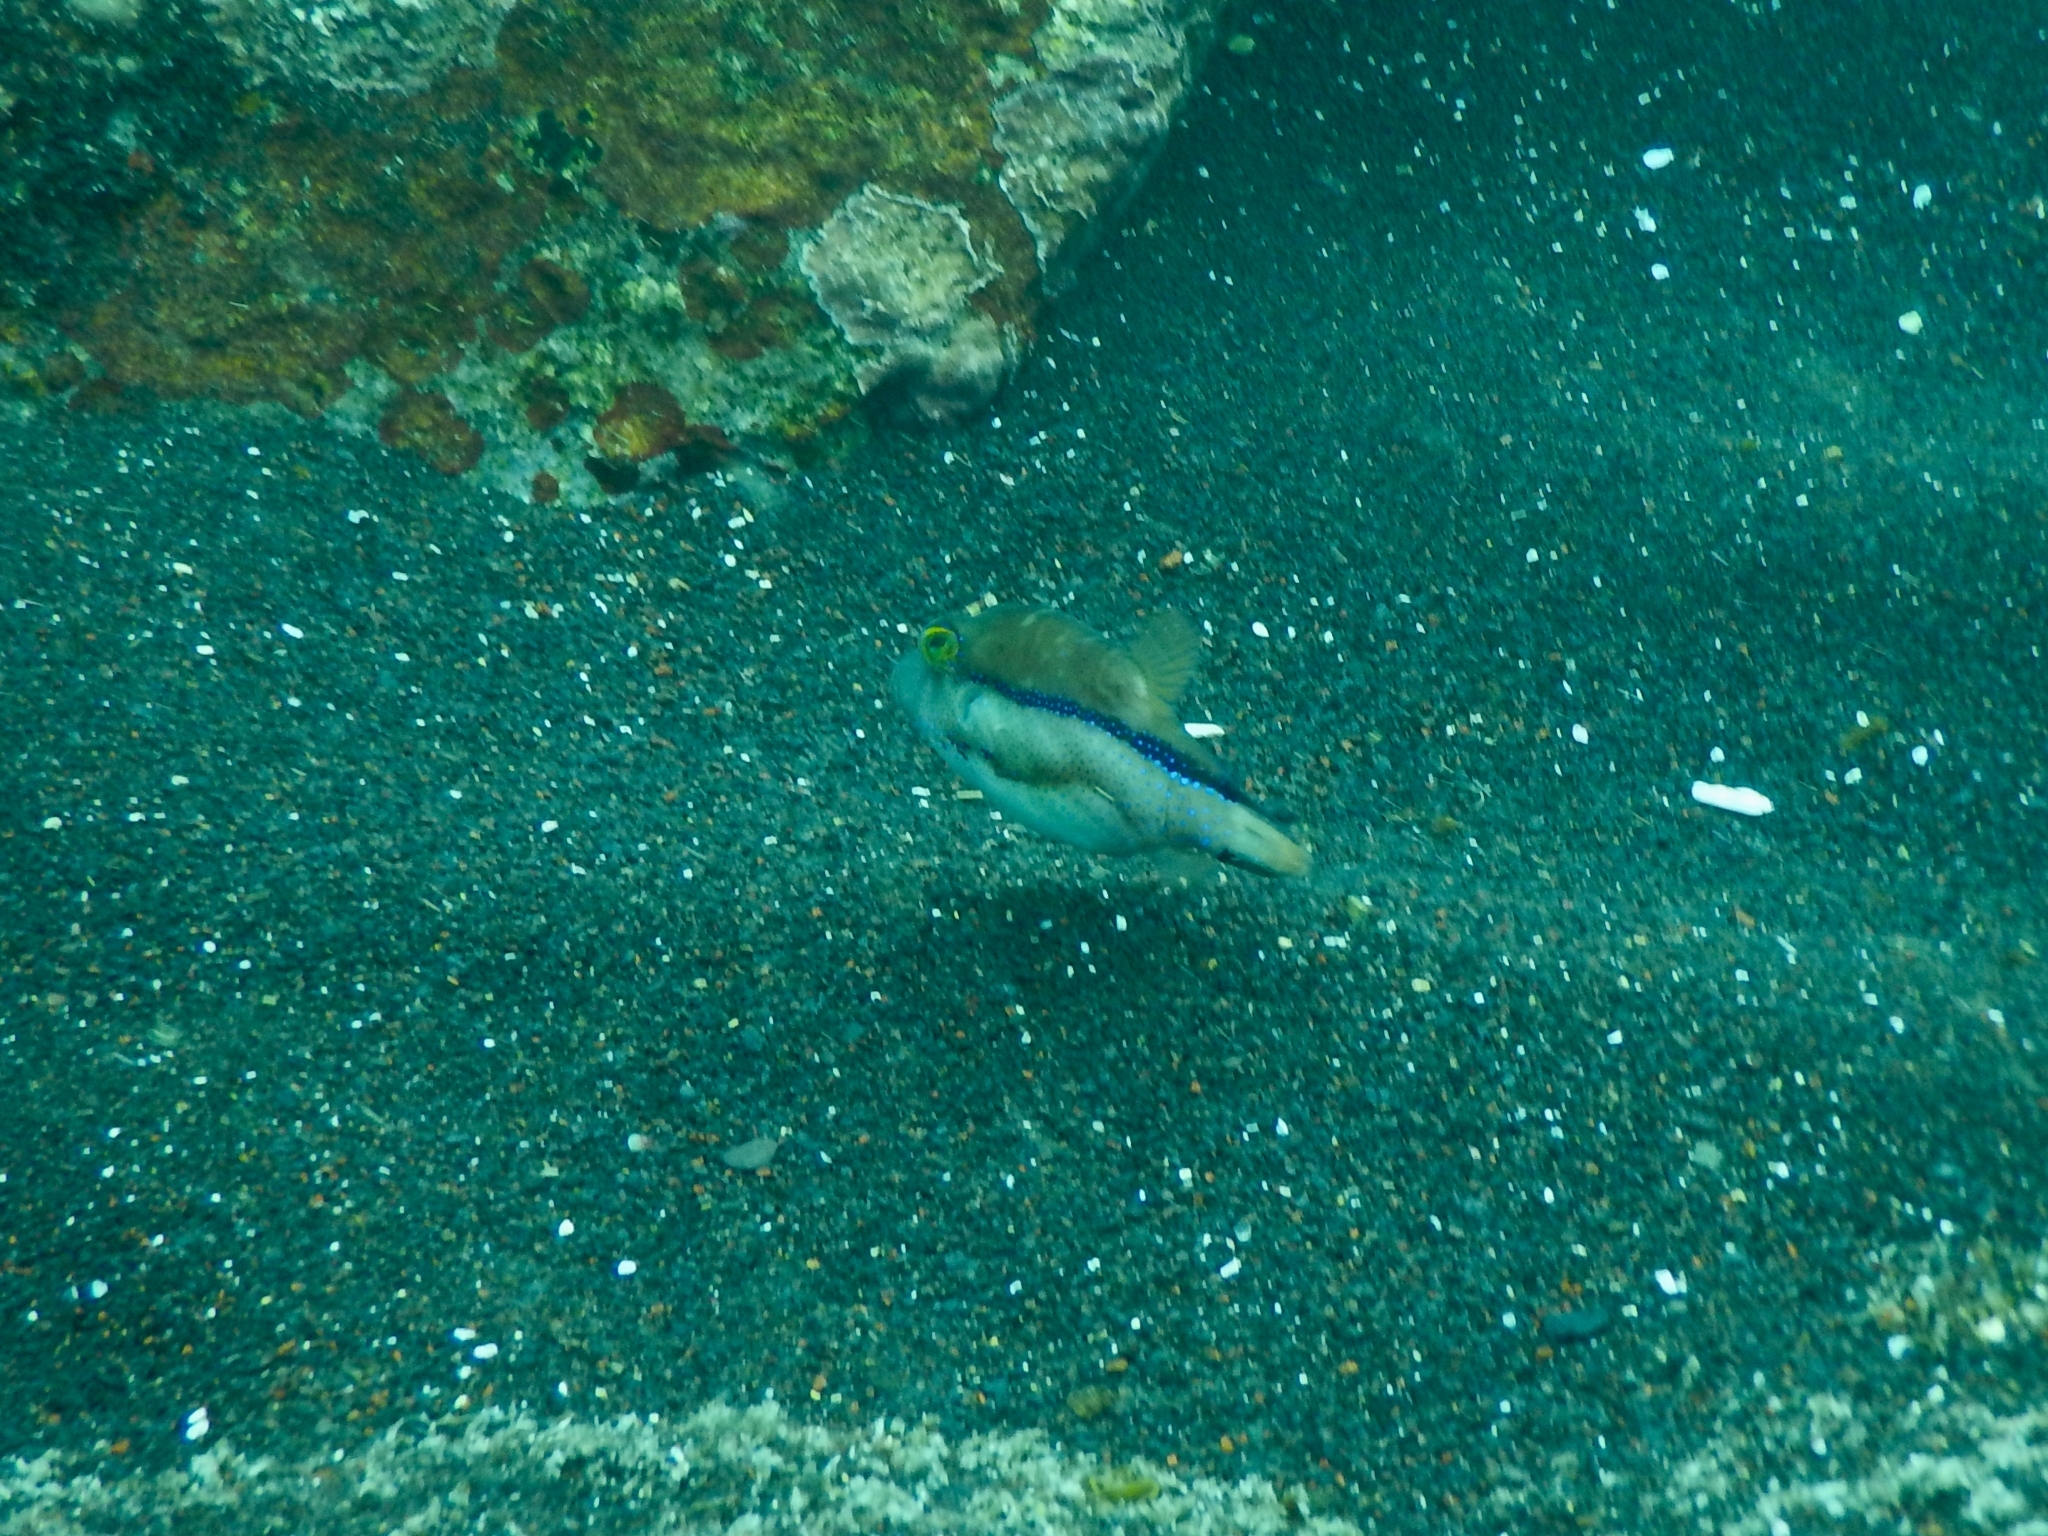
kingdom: Animalia
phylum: Chordata
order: Tetraodontiformes
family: Tetraodontidae
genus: Canthigaster
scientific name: Canthigaster capistrata
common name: Macaronesian sharpnose-puffer
